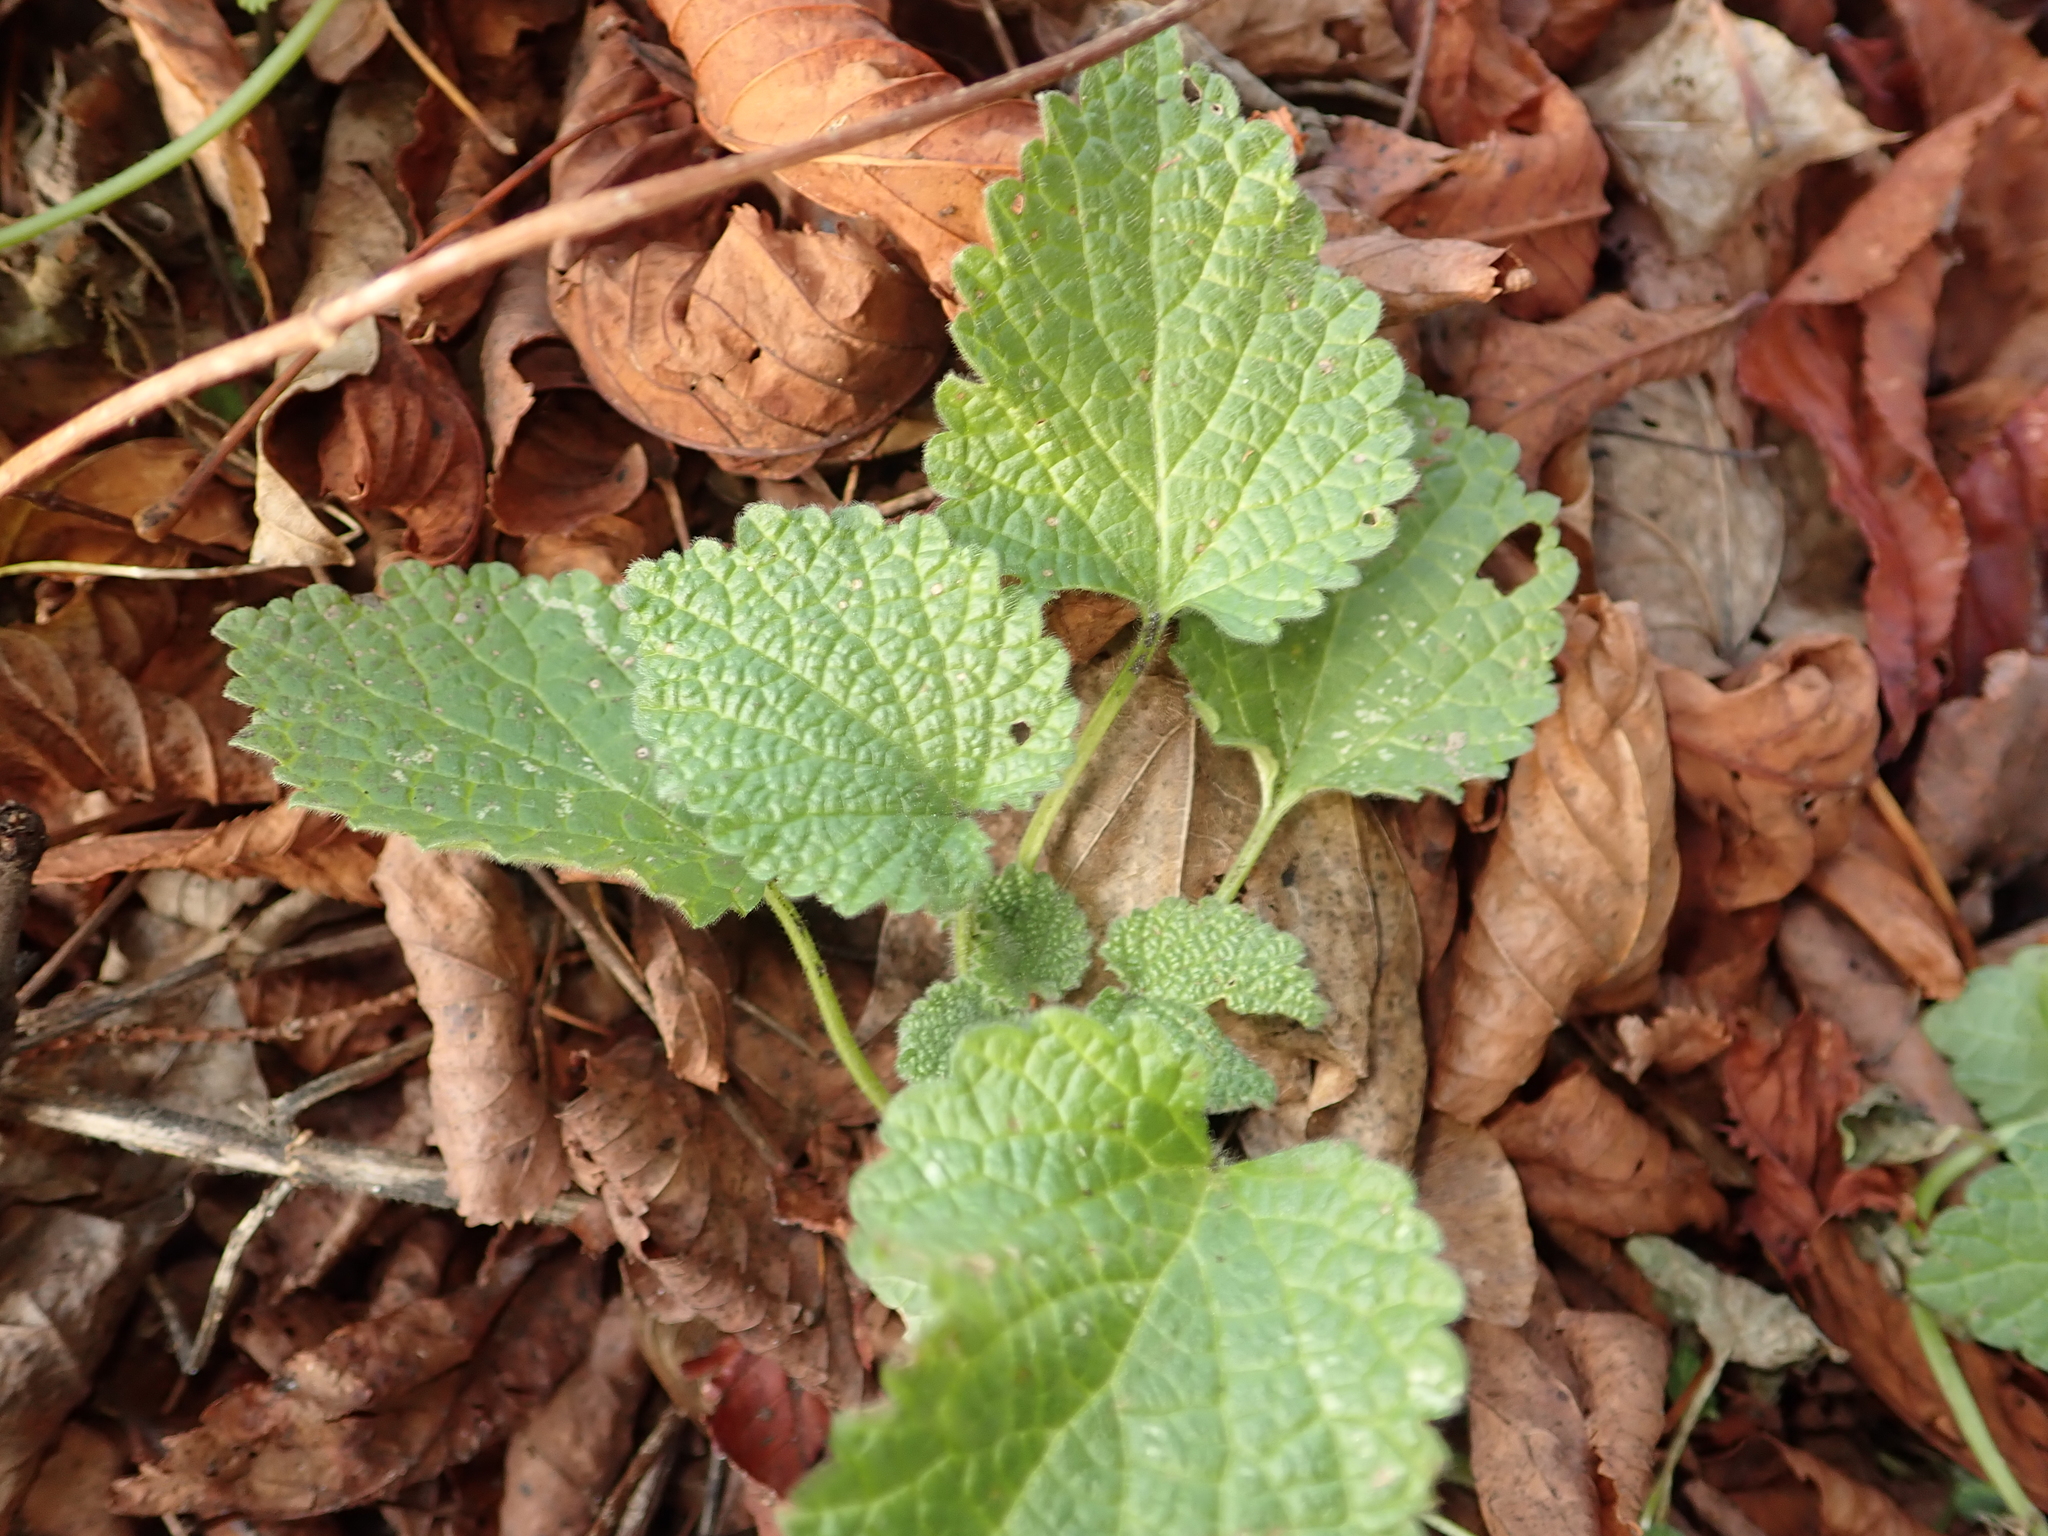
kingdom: Plantae
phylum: Tracheophyta
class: Magnoliopsida
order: Lamiales
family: Lamiaceae
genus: Ballota
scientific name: Ballota nigra
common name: Black horehound
